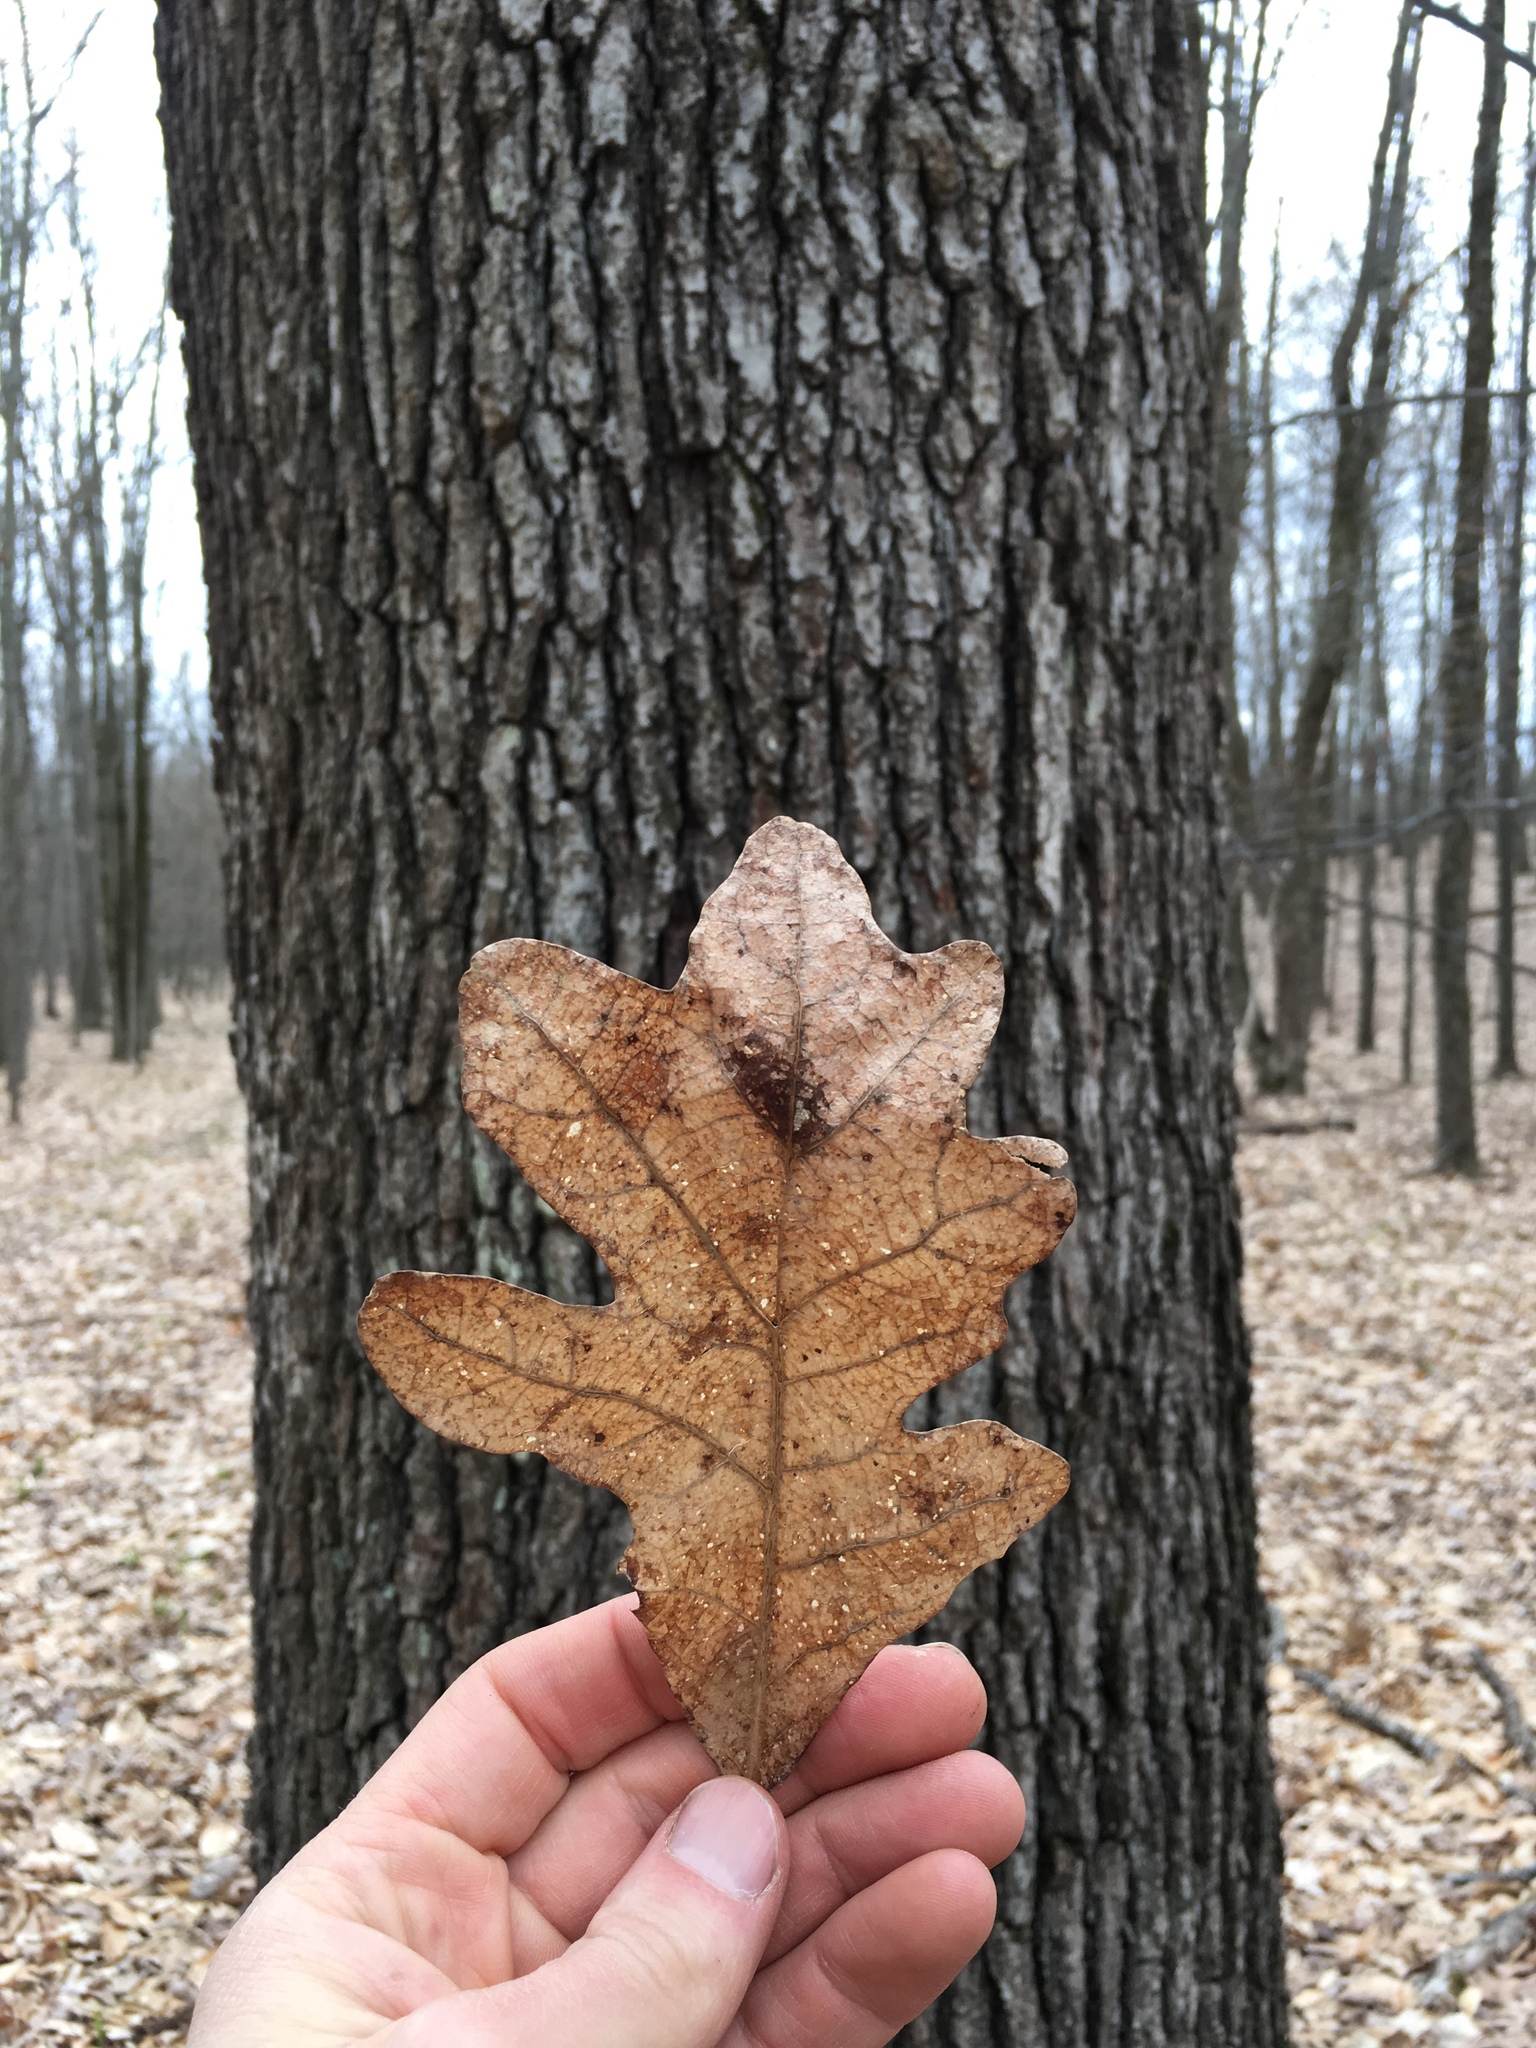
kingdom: Plantae
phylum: Tracheophyta
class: Magnoliopsida
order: Fagales
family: Fagaceae
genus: Quercus
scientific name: Quercus alba
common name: White oak
